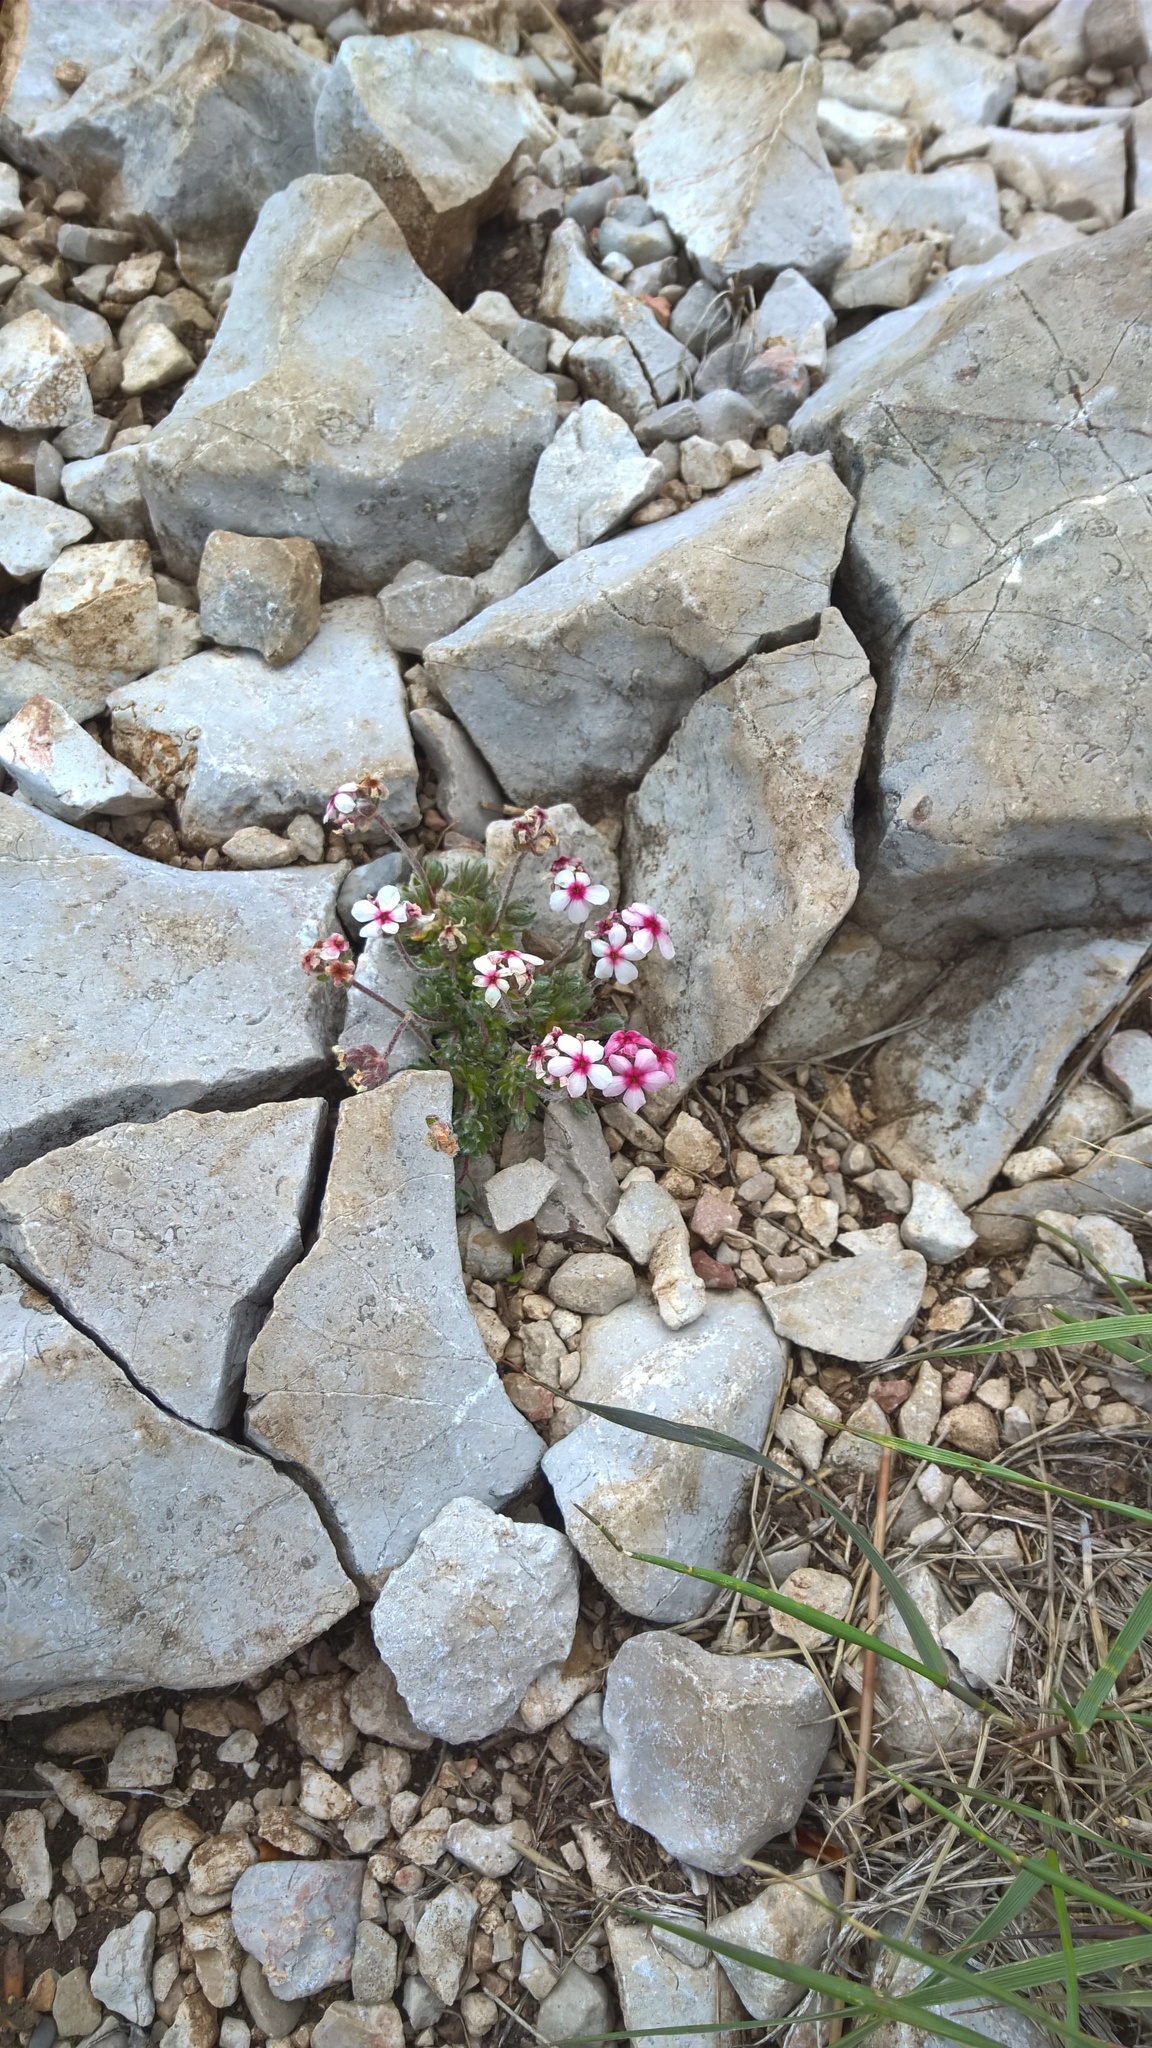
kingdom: Plantae
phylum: Tracheophyta
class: Magnoliopsida
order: Ericales
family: Primulaceae
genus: Androsace
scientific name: Androsace villosa
